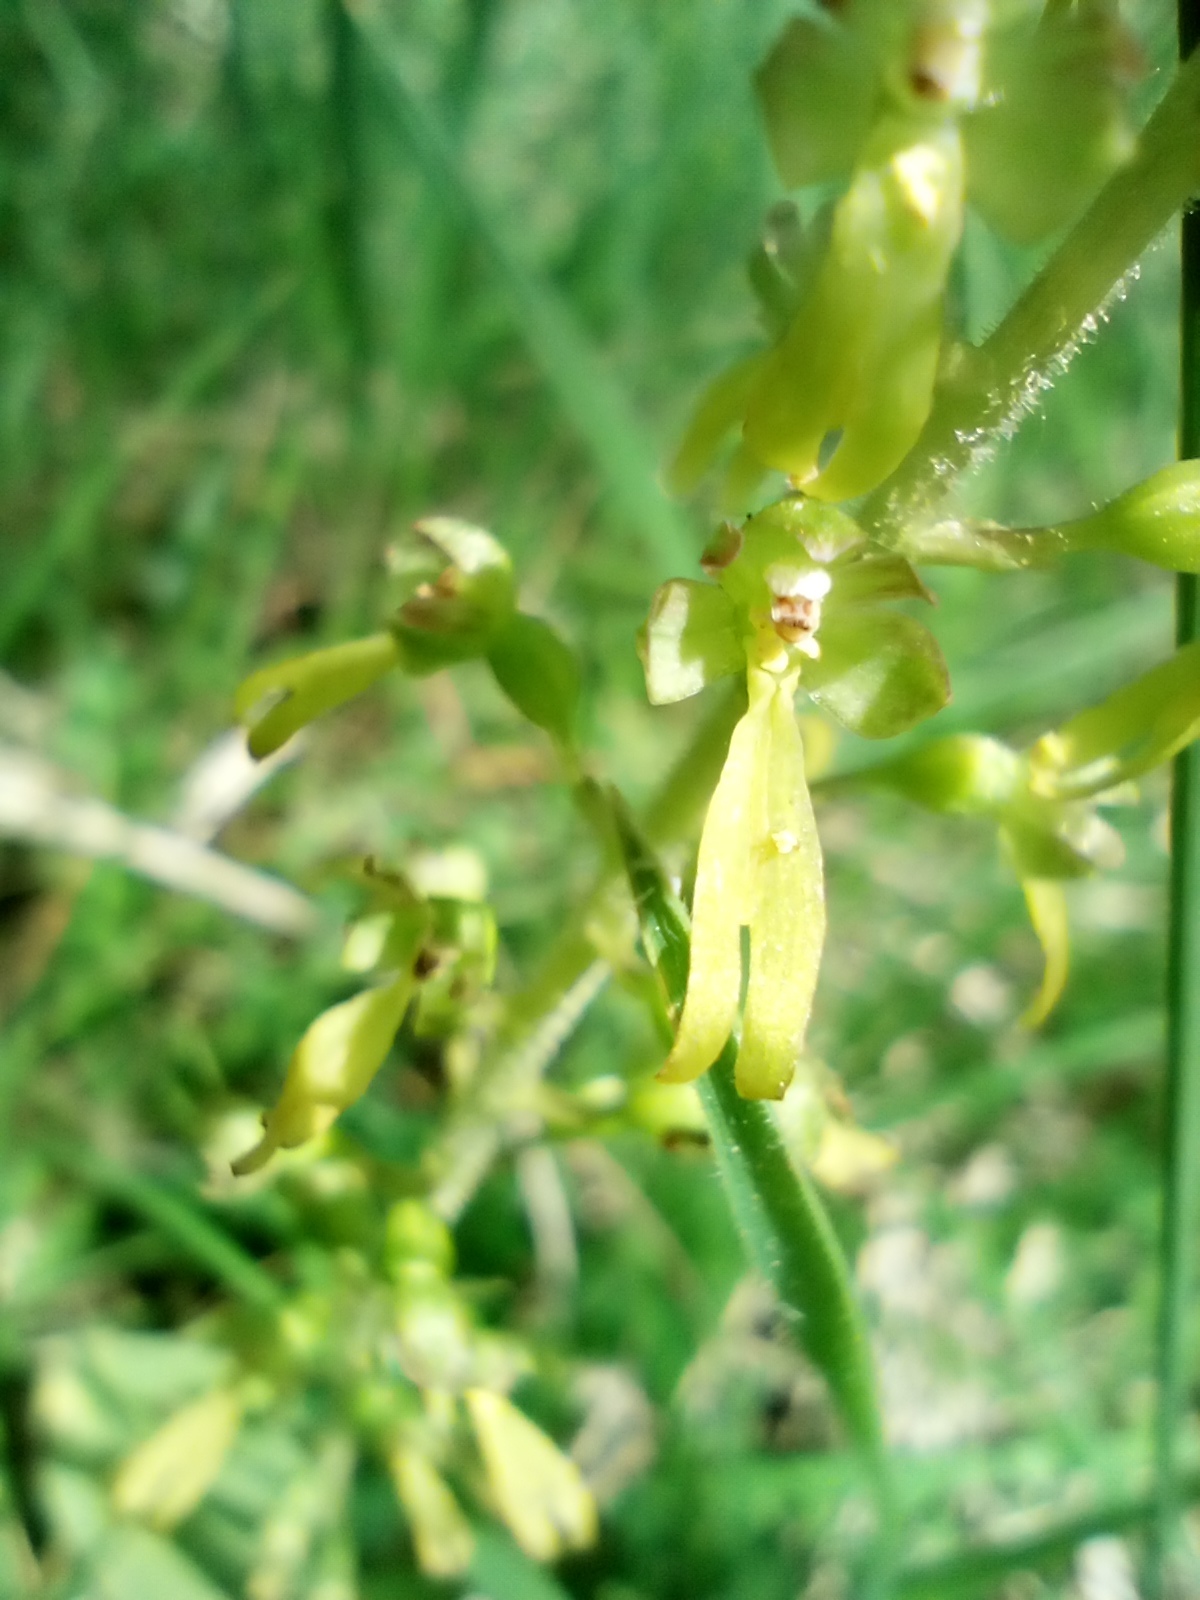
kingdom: Plantae
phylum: Tracheophyta
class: Liliopsida
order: Asparagales
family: Orchidaceae
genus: Neottia
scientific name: Neottia ovata
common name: Common twayblade
